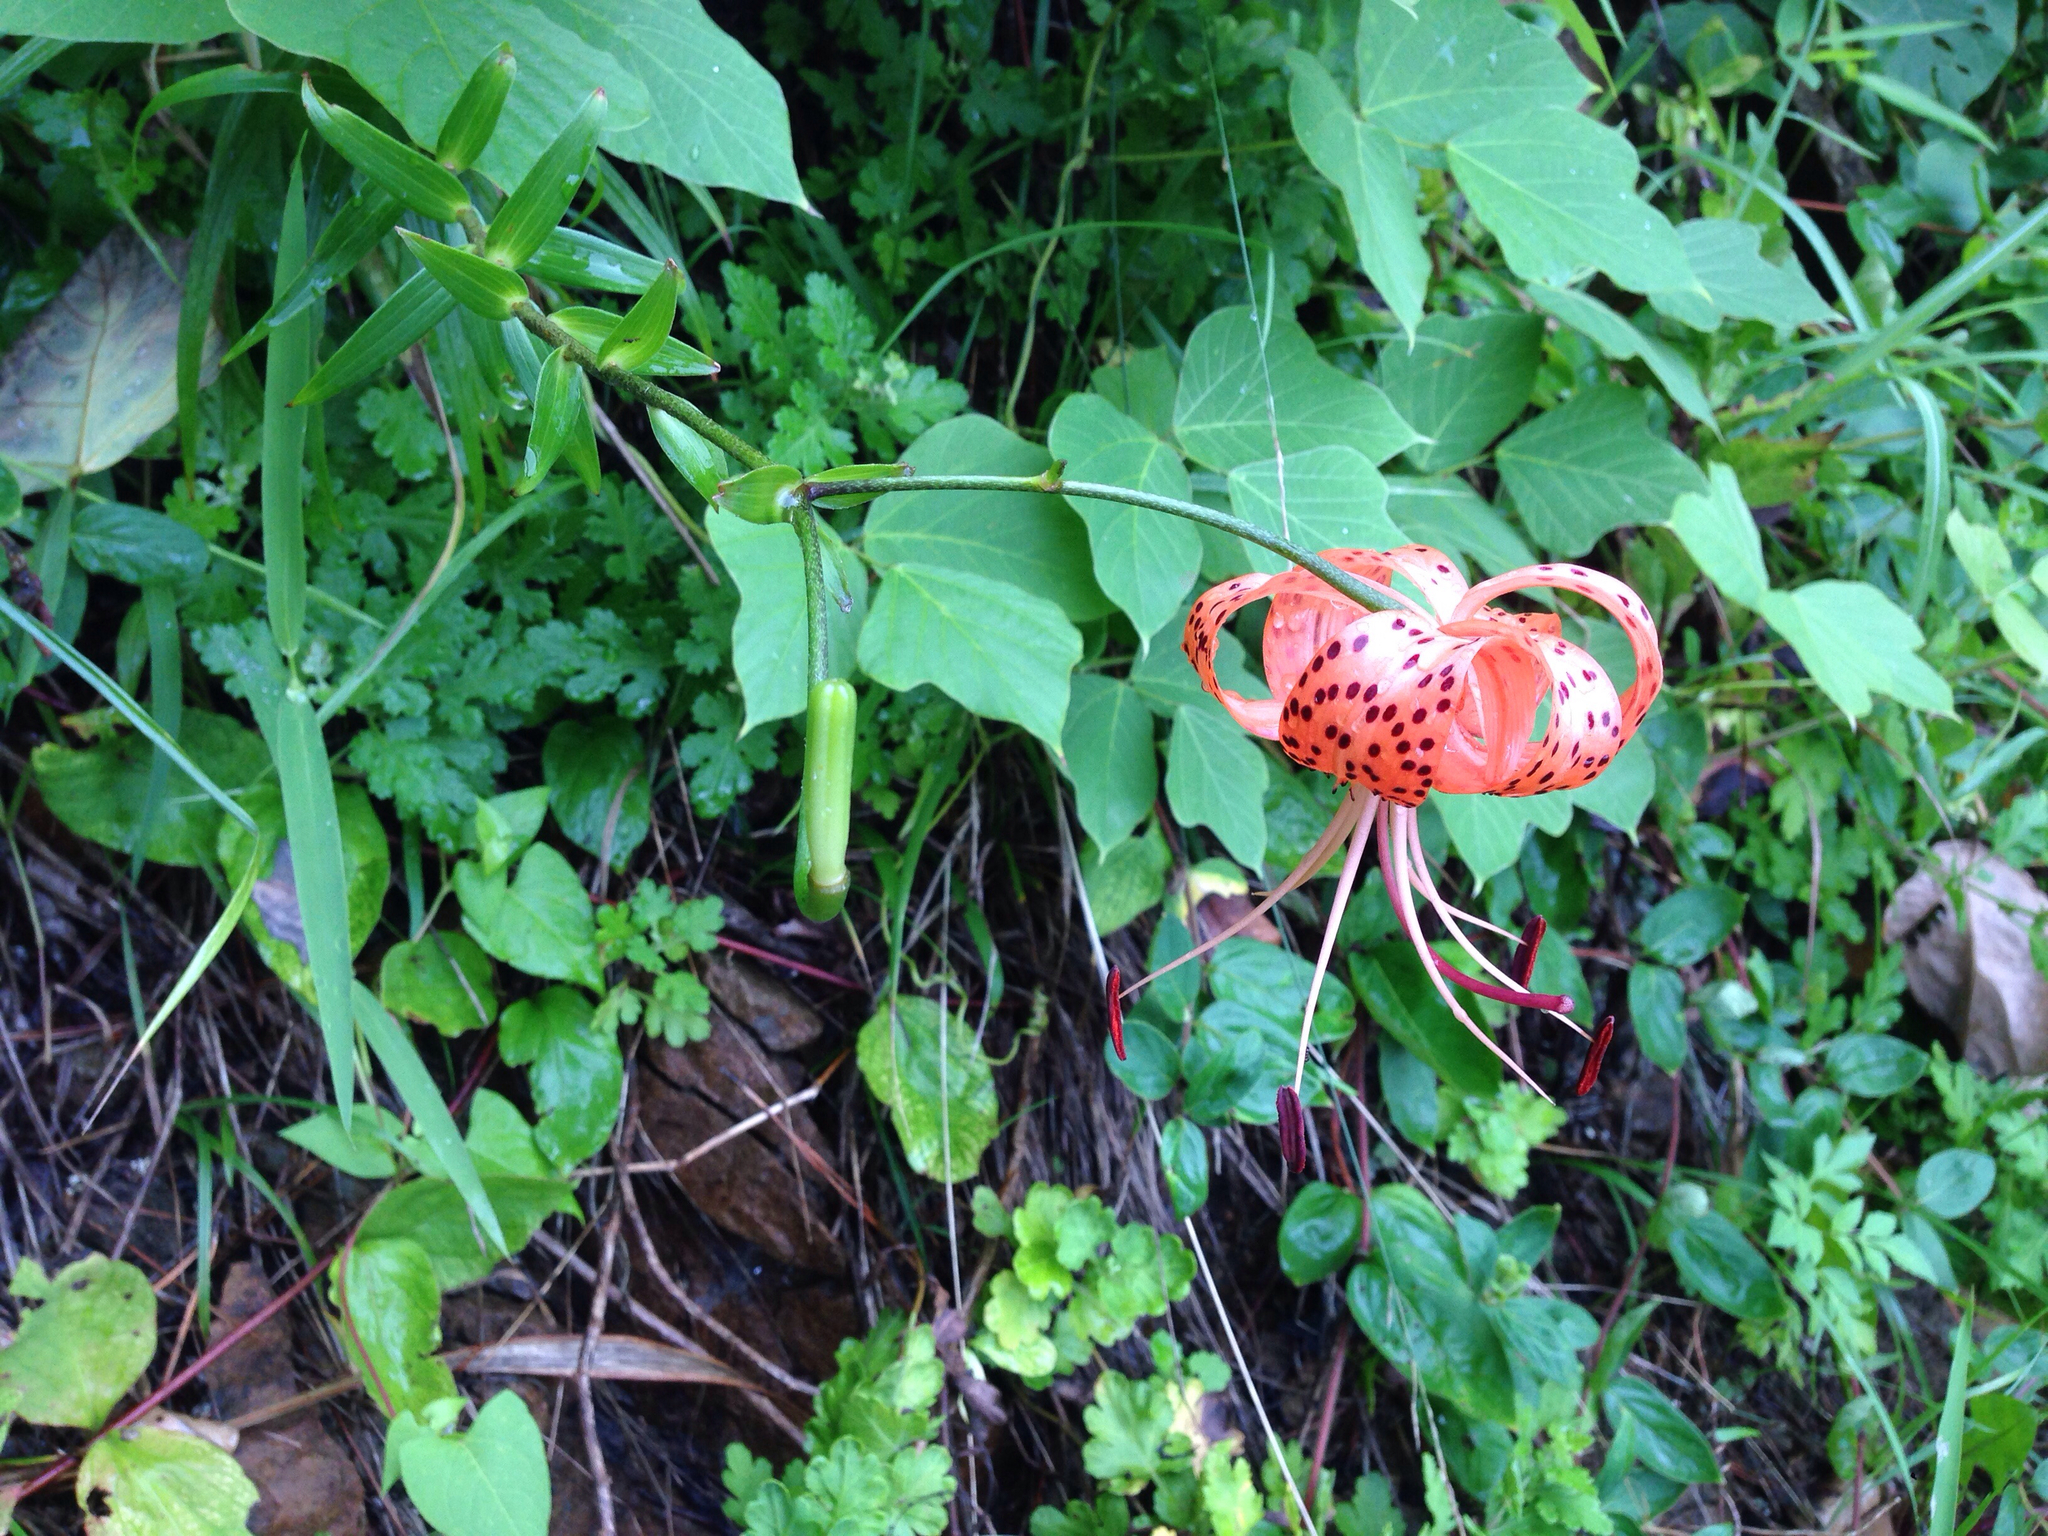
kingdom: Plantae
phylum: Tracheophyta
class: Liliopsida
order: Liliales
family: Liliaceae
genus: Lilium
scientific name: Lilium lancifolium
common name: Tiger lily
